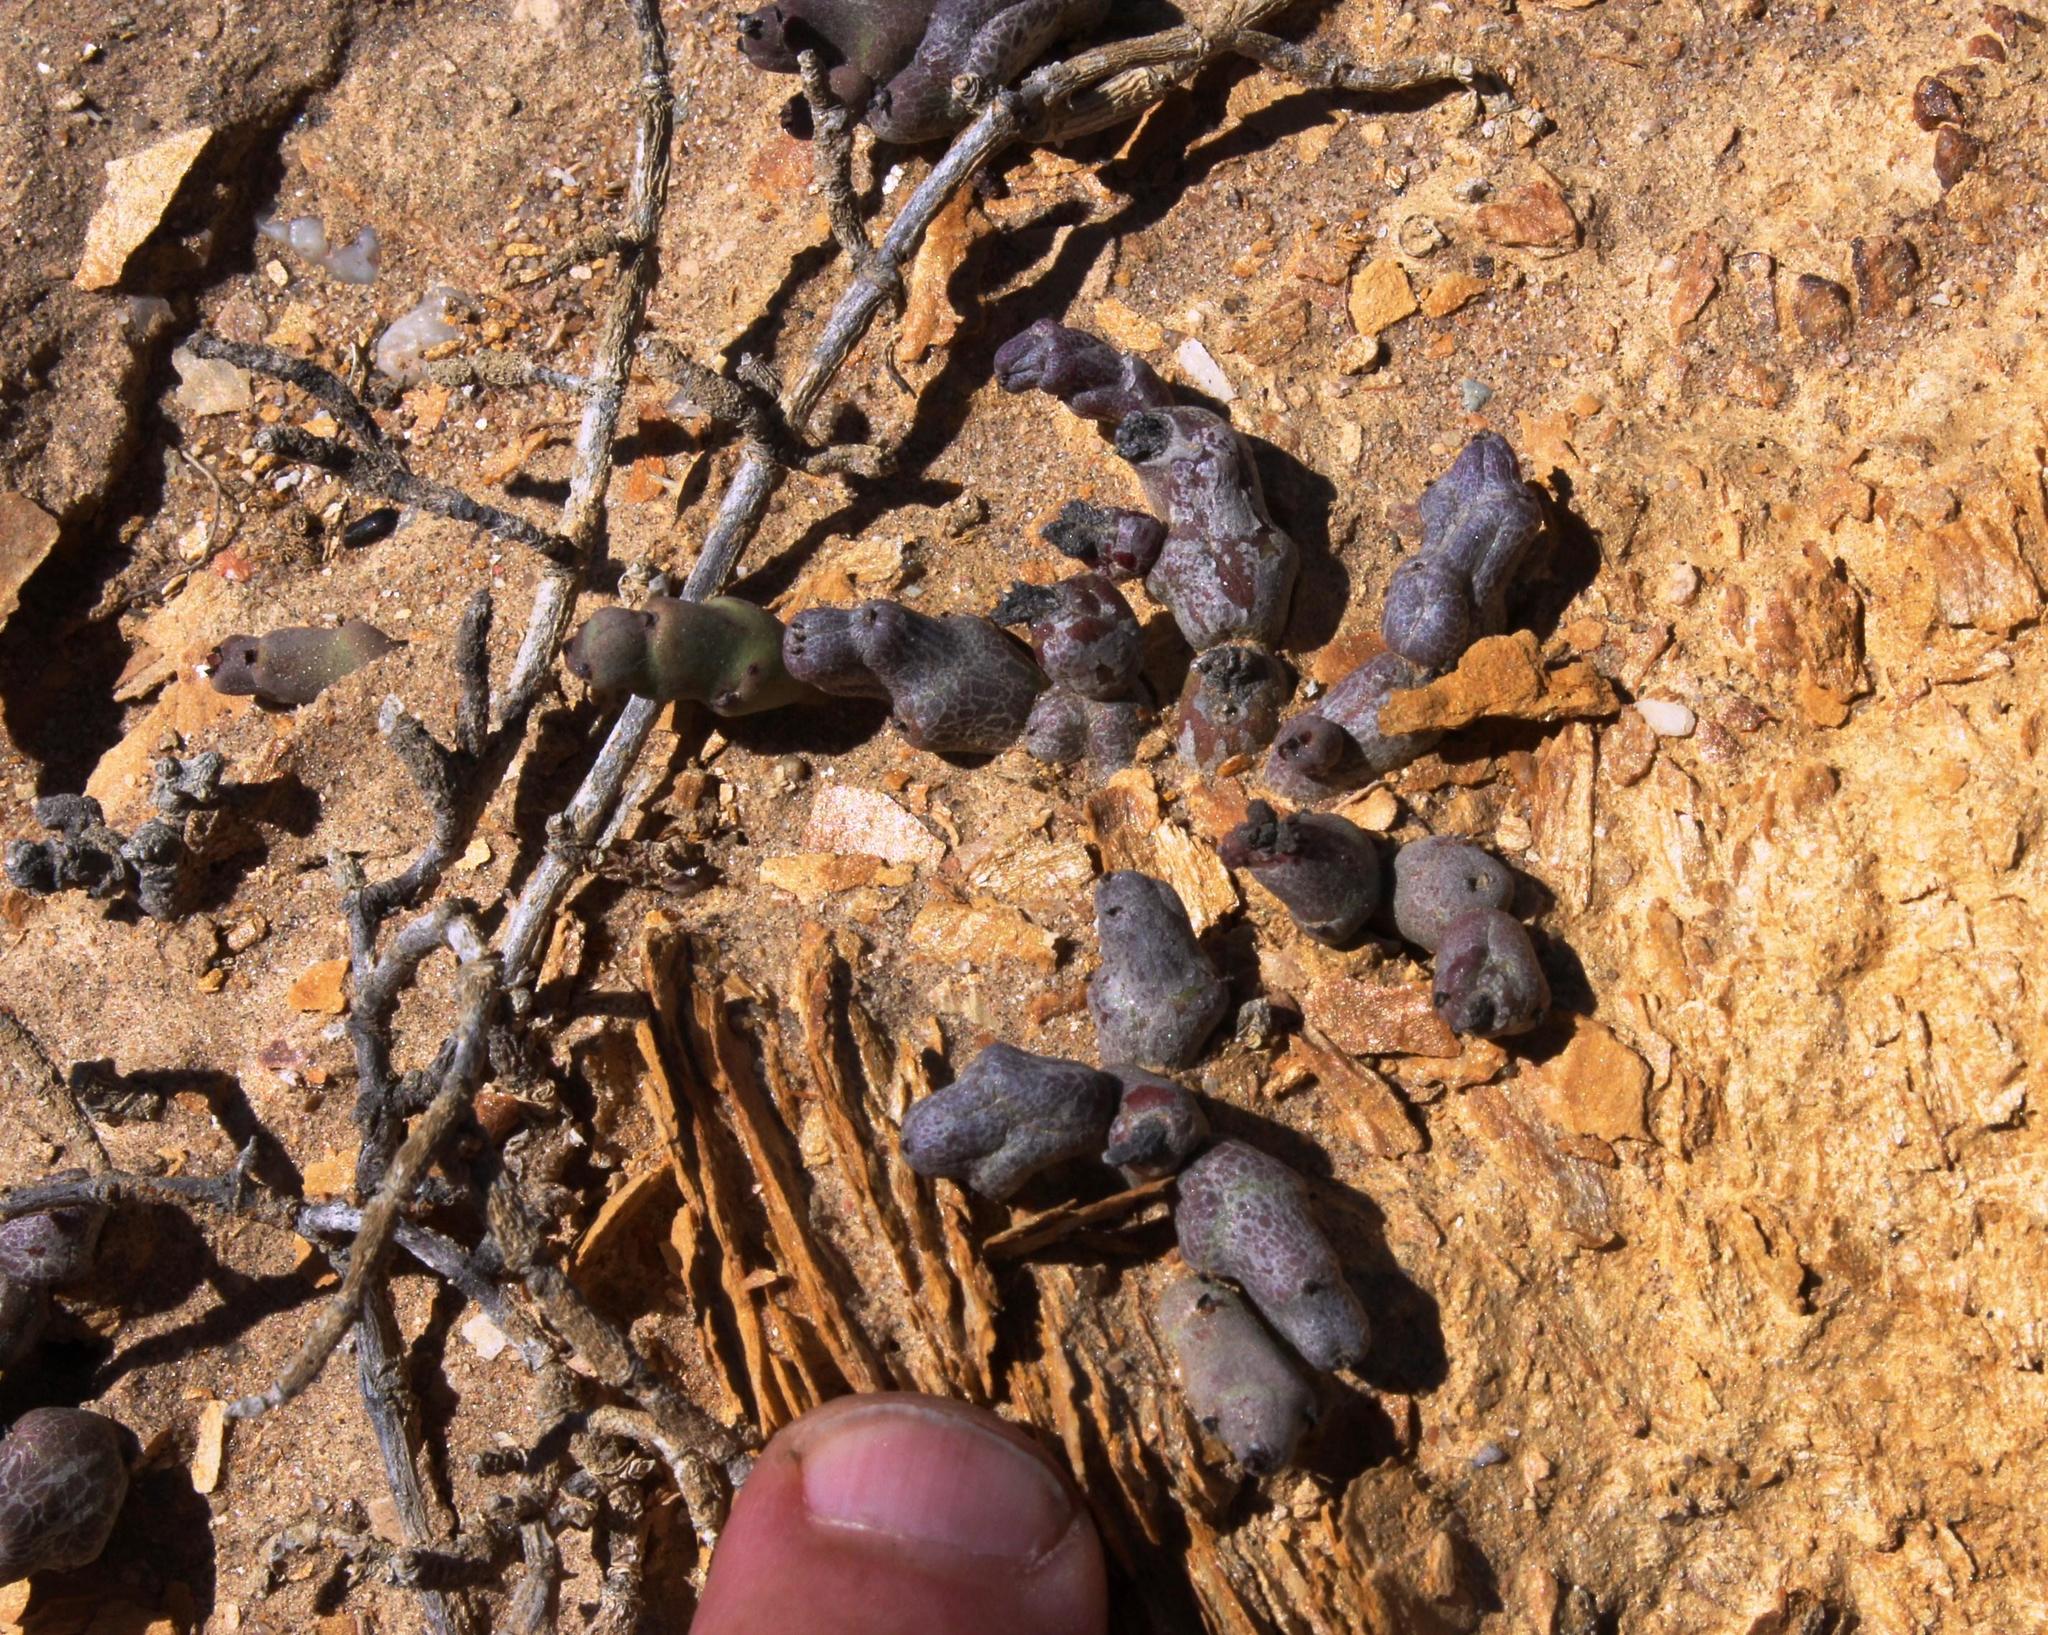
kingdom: Plantae
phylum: Tracheophyta
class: Magnoliopsida
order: Malpighiales
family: Euphorbiaceae
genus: Euphorbia
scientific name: Euphorbia stapelioides
